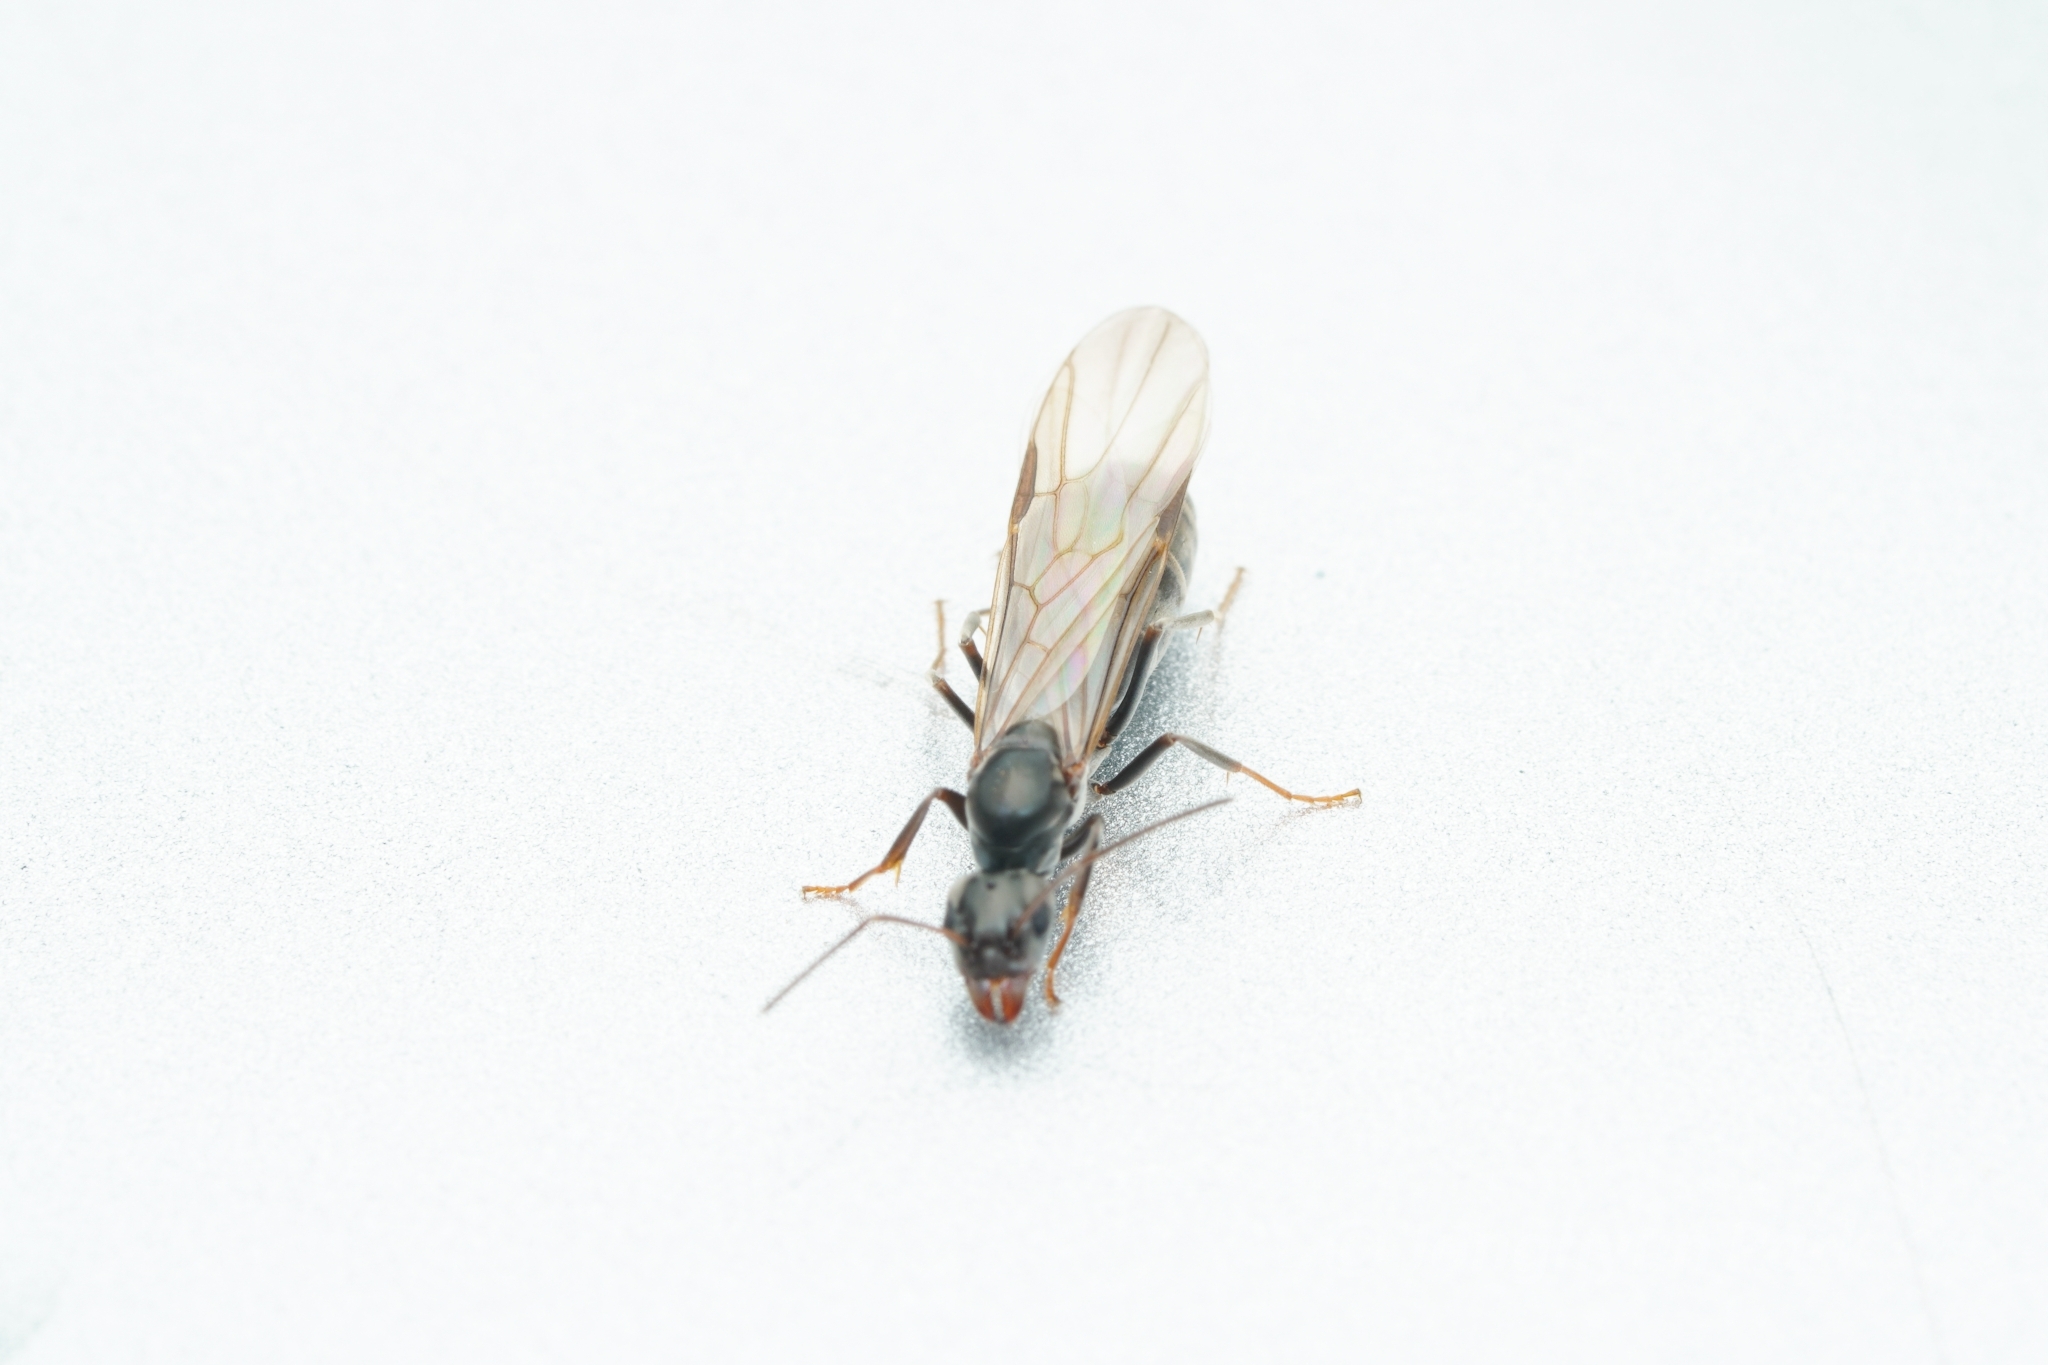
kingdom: Animalia
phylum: Arthropoda
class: Insecta
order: Hymenoptera
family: Formicidae
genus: Iridomyrmex
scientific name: Iridomyrmex anceps
